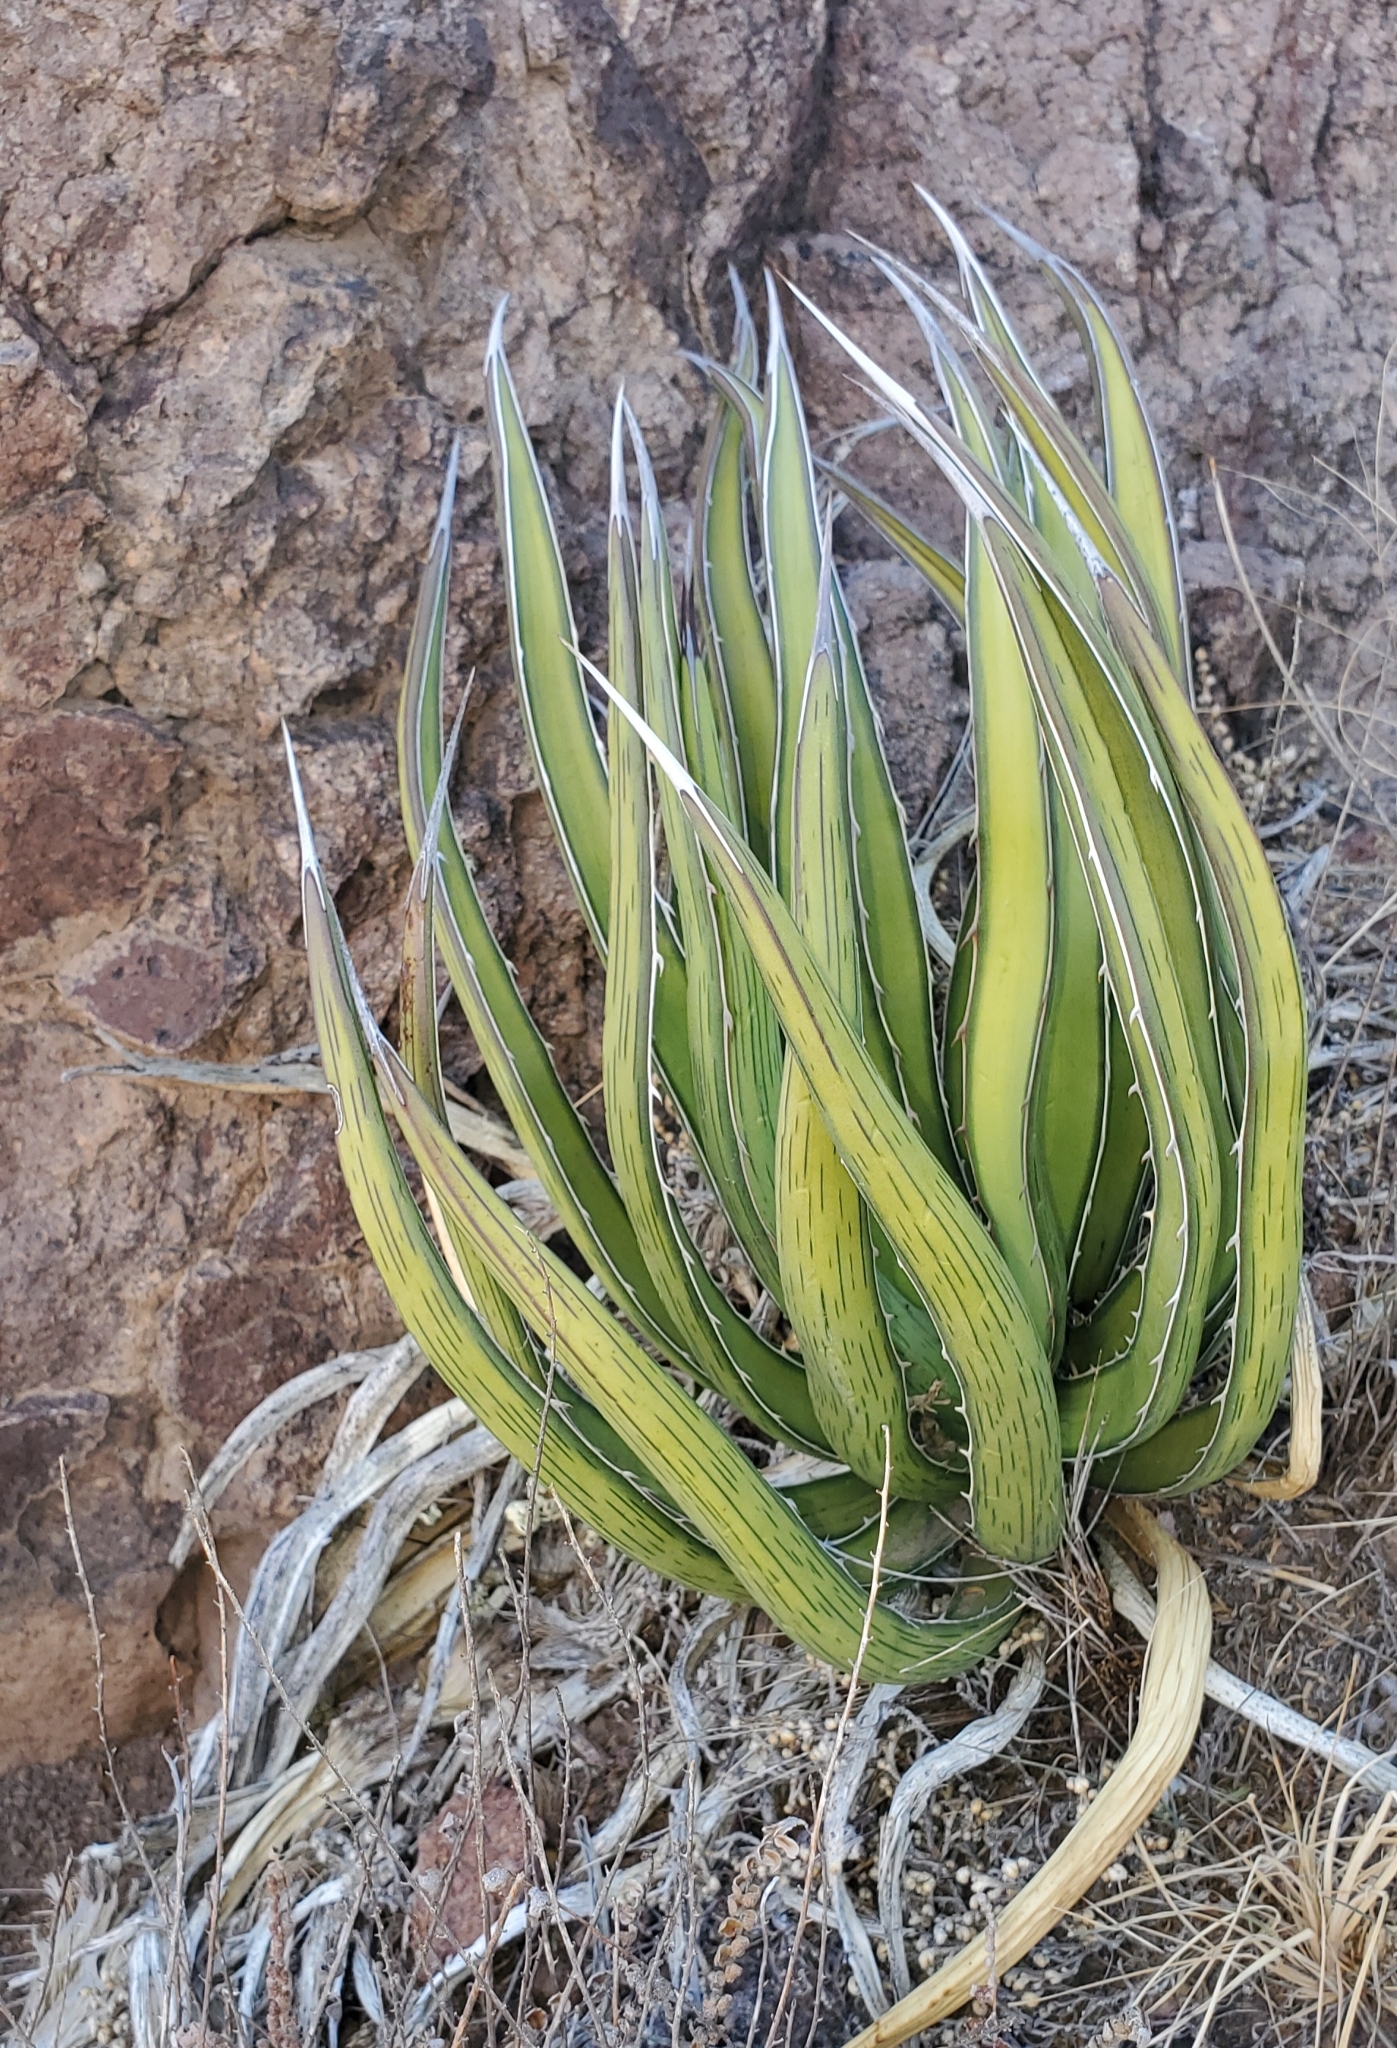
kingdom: Plantae
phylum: Tracheophyta
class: Liliopsida
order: Asparagales
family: Asparagaceae
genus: Agave
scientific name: Agave lechuguilla
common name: Lecheguilla agave
